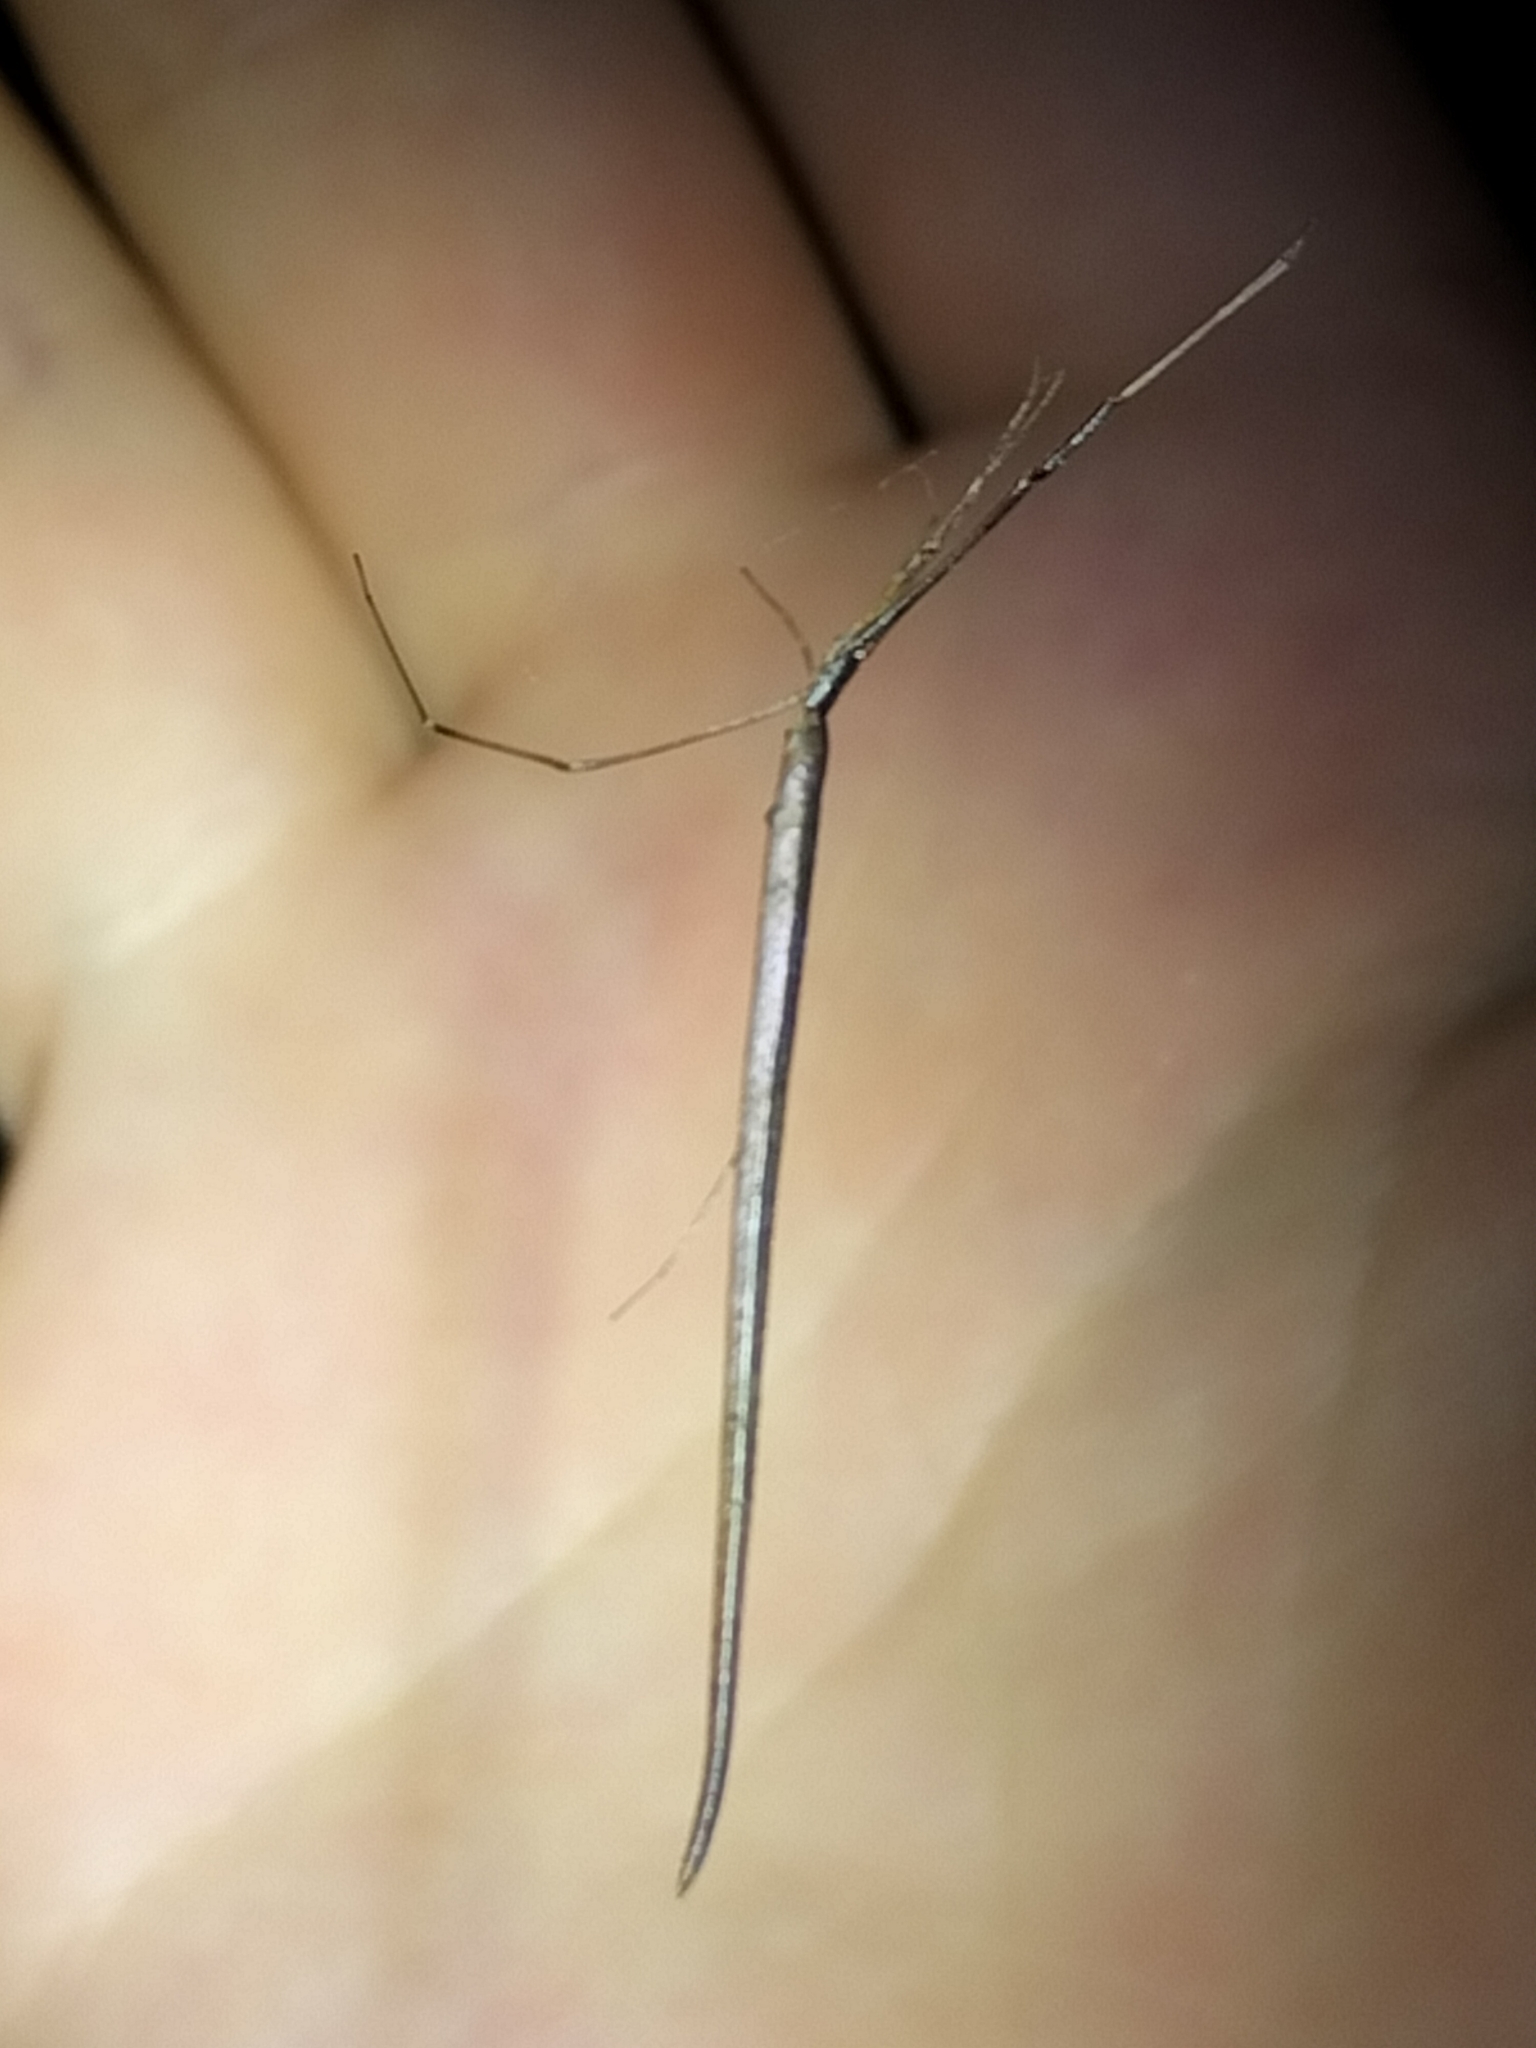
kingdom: Animalia
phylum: Arthropoda
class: Arachnida
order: Araneae
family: Theridiidae
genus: Ariamnes
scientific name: Ariamnes colubrinus
